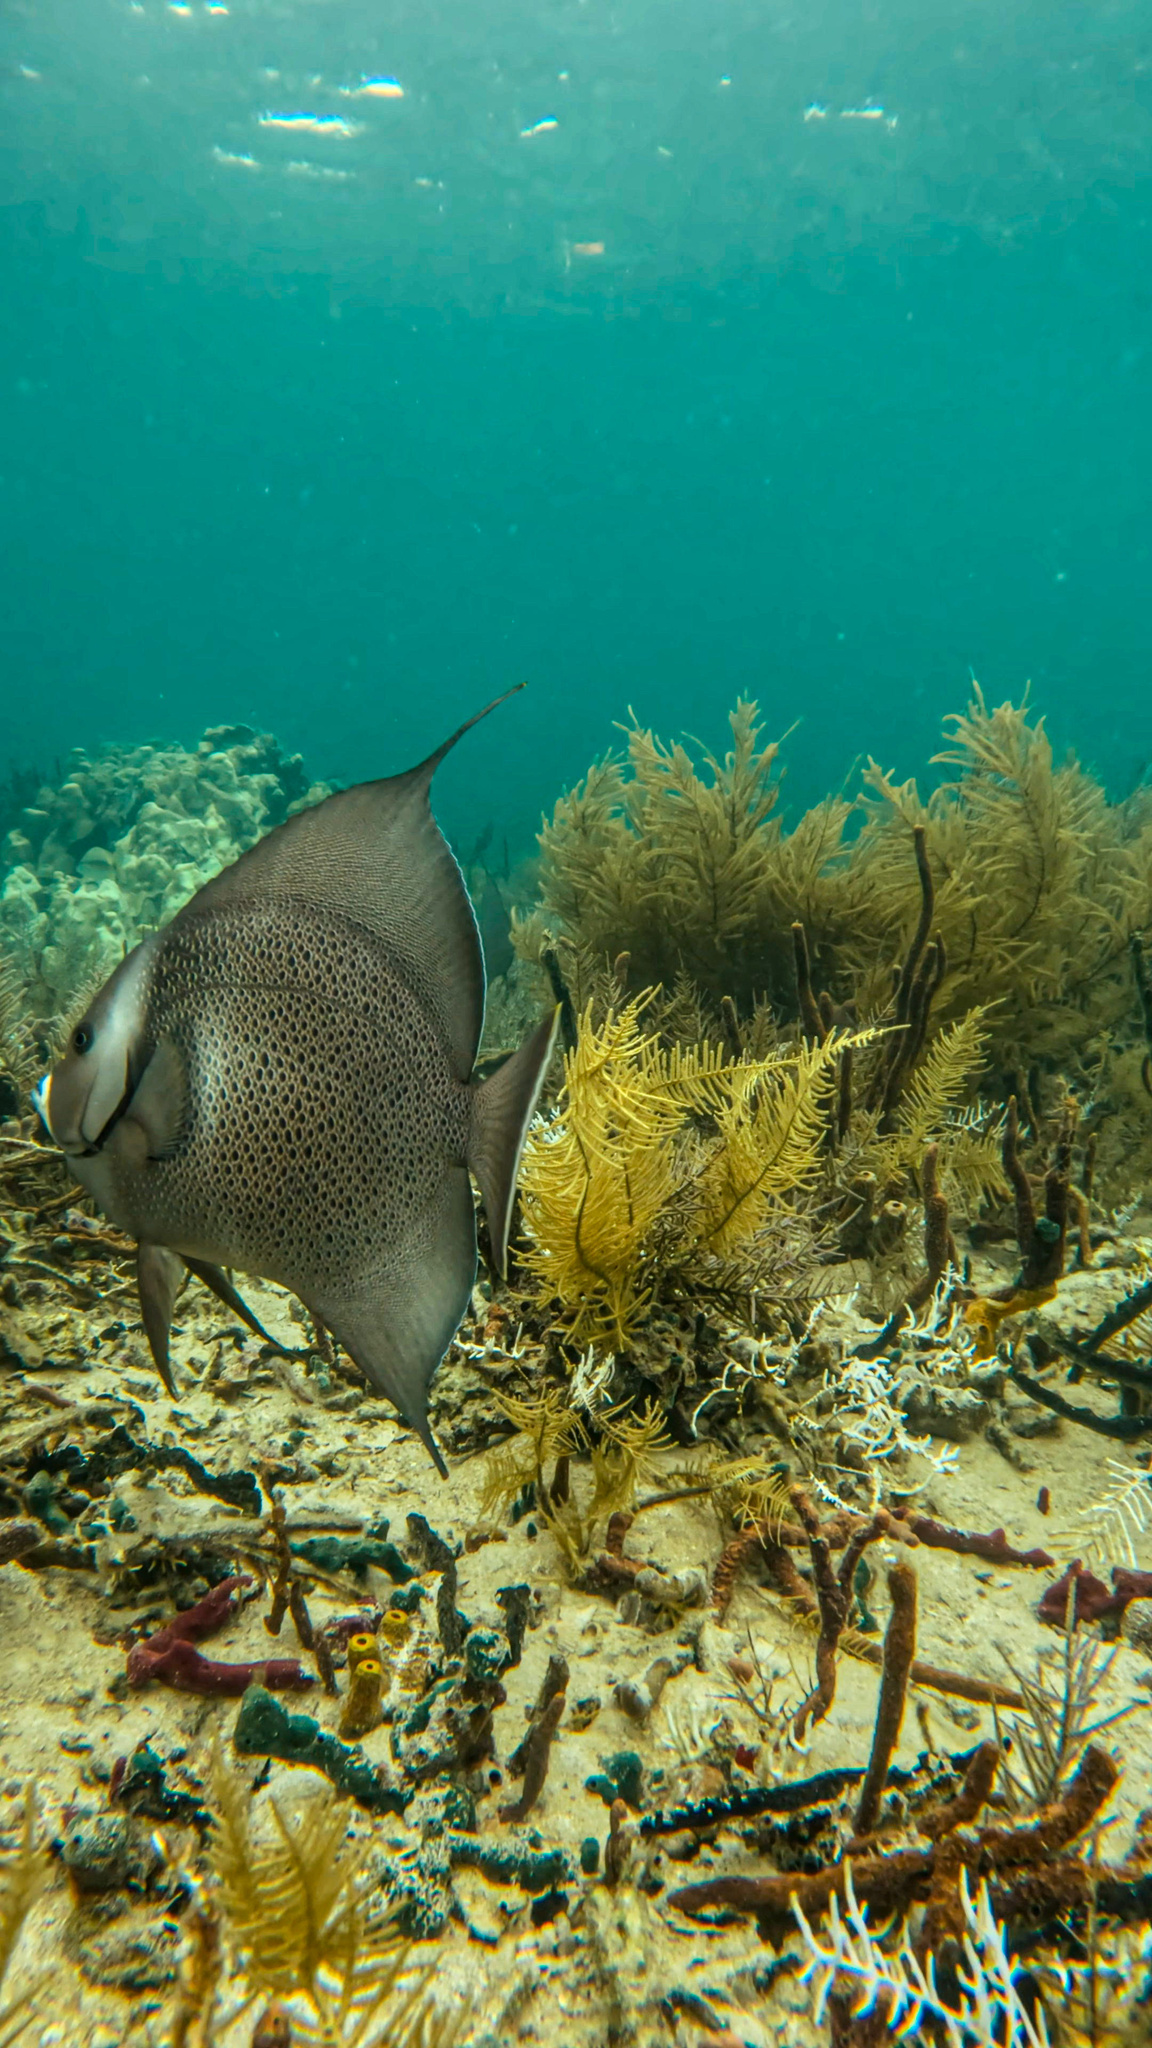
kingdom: Animalia
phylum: Chordata
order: Perciformes
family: Pomacanthidae
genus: Pomacanthus
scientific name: Pomacanthus arcuatus
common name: Gray angelfish
